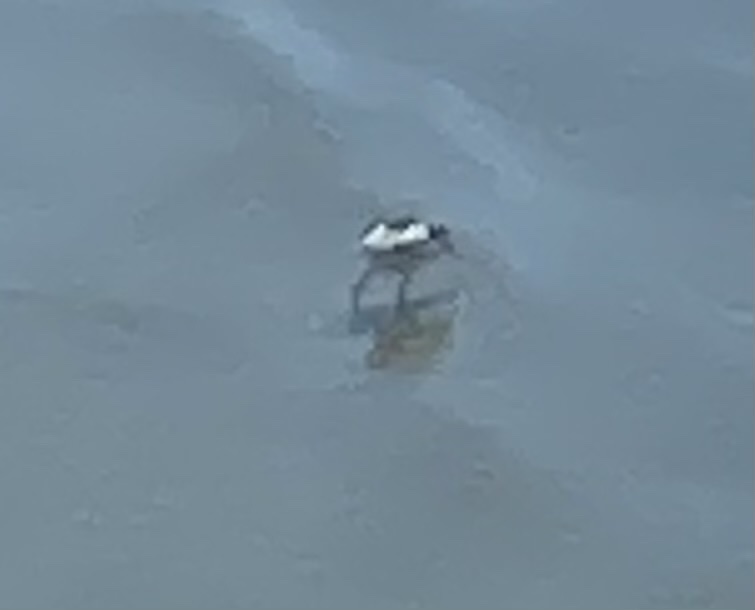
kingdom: Animalia
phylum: Chordata
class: Aves
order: Charadriiformes
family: Recurvirostridae
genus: Recurvirostra
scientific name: Recurvirostra avosetta
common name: Pied avocet
